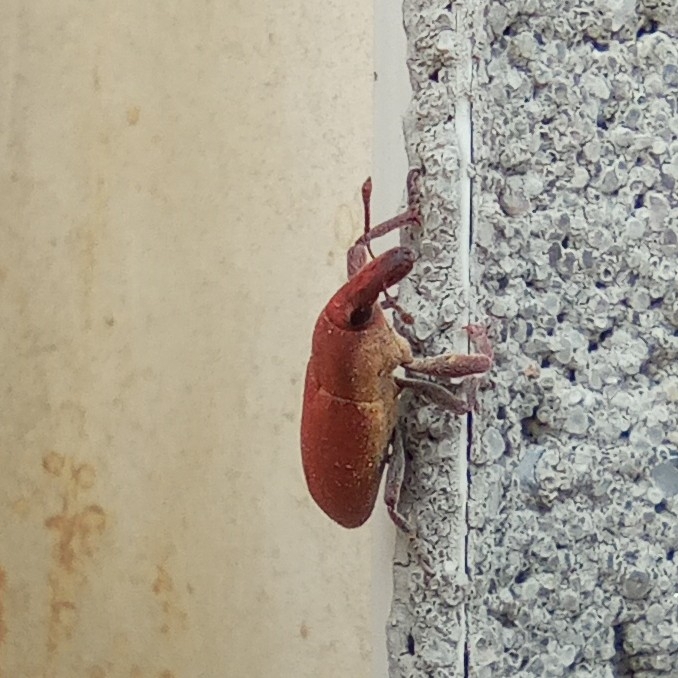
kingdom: Animalia
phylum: Arthropoda
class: Insecta
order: Coleoptera
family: Curculionidae
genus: Lixus
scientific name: Lixus angustus
